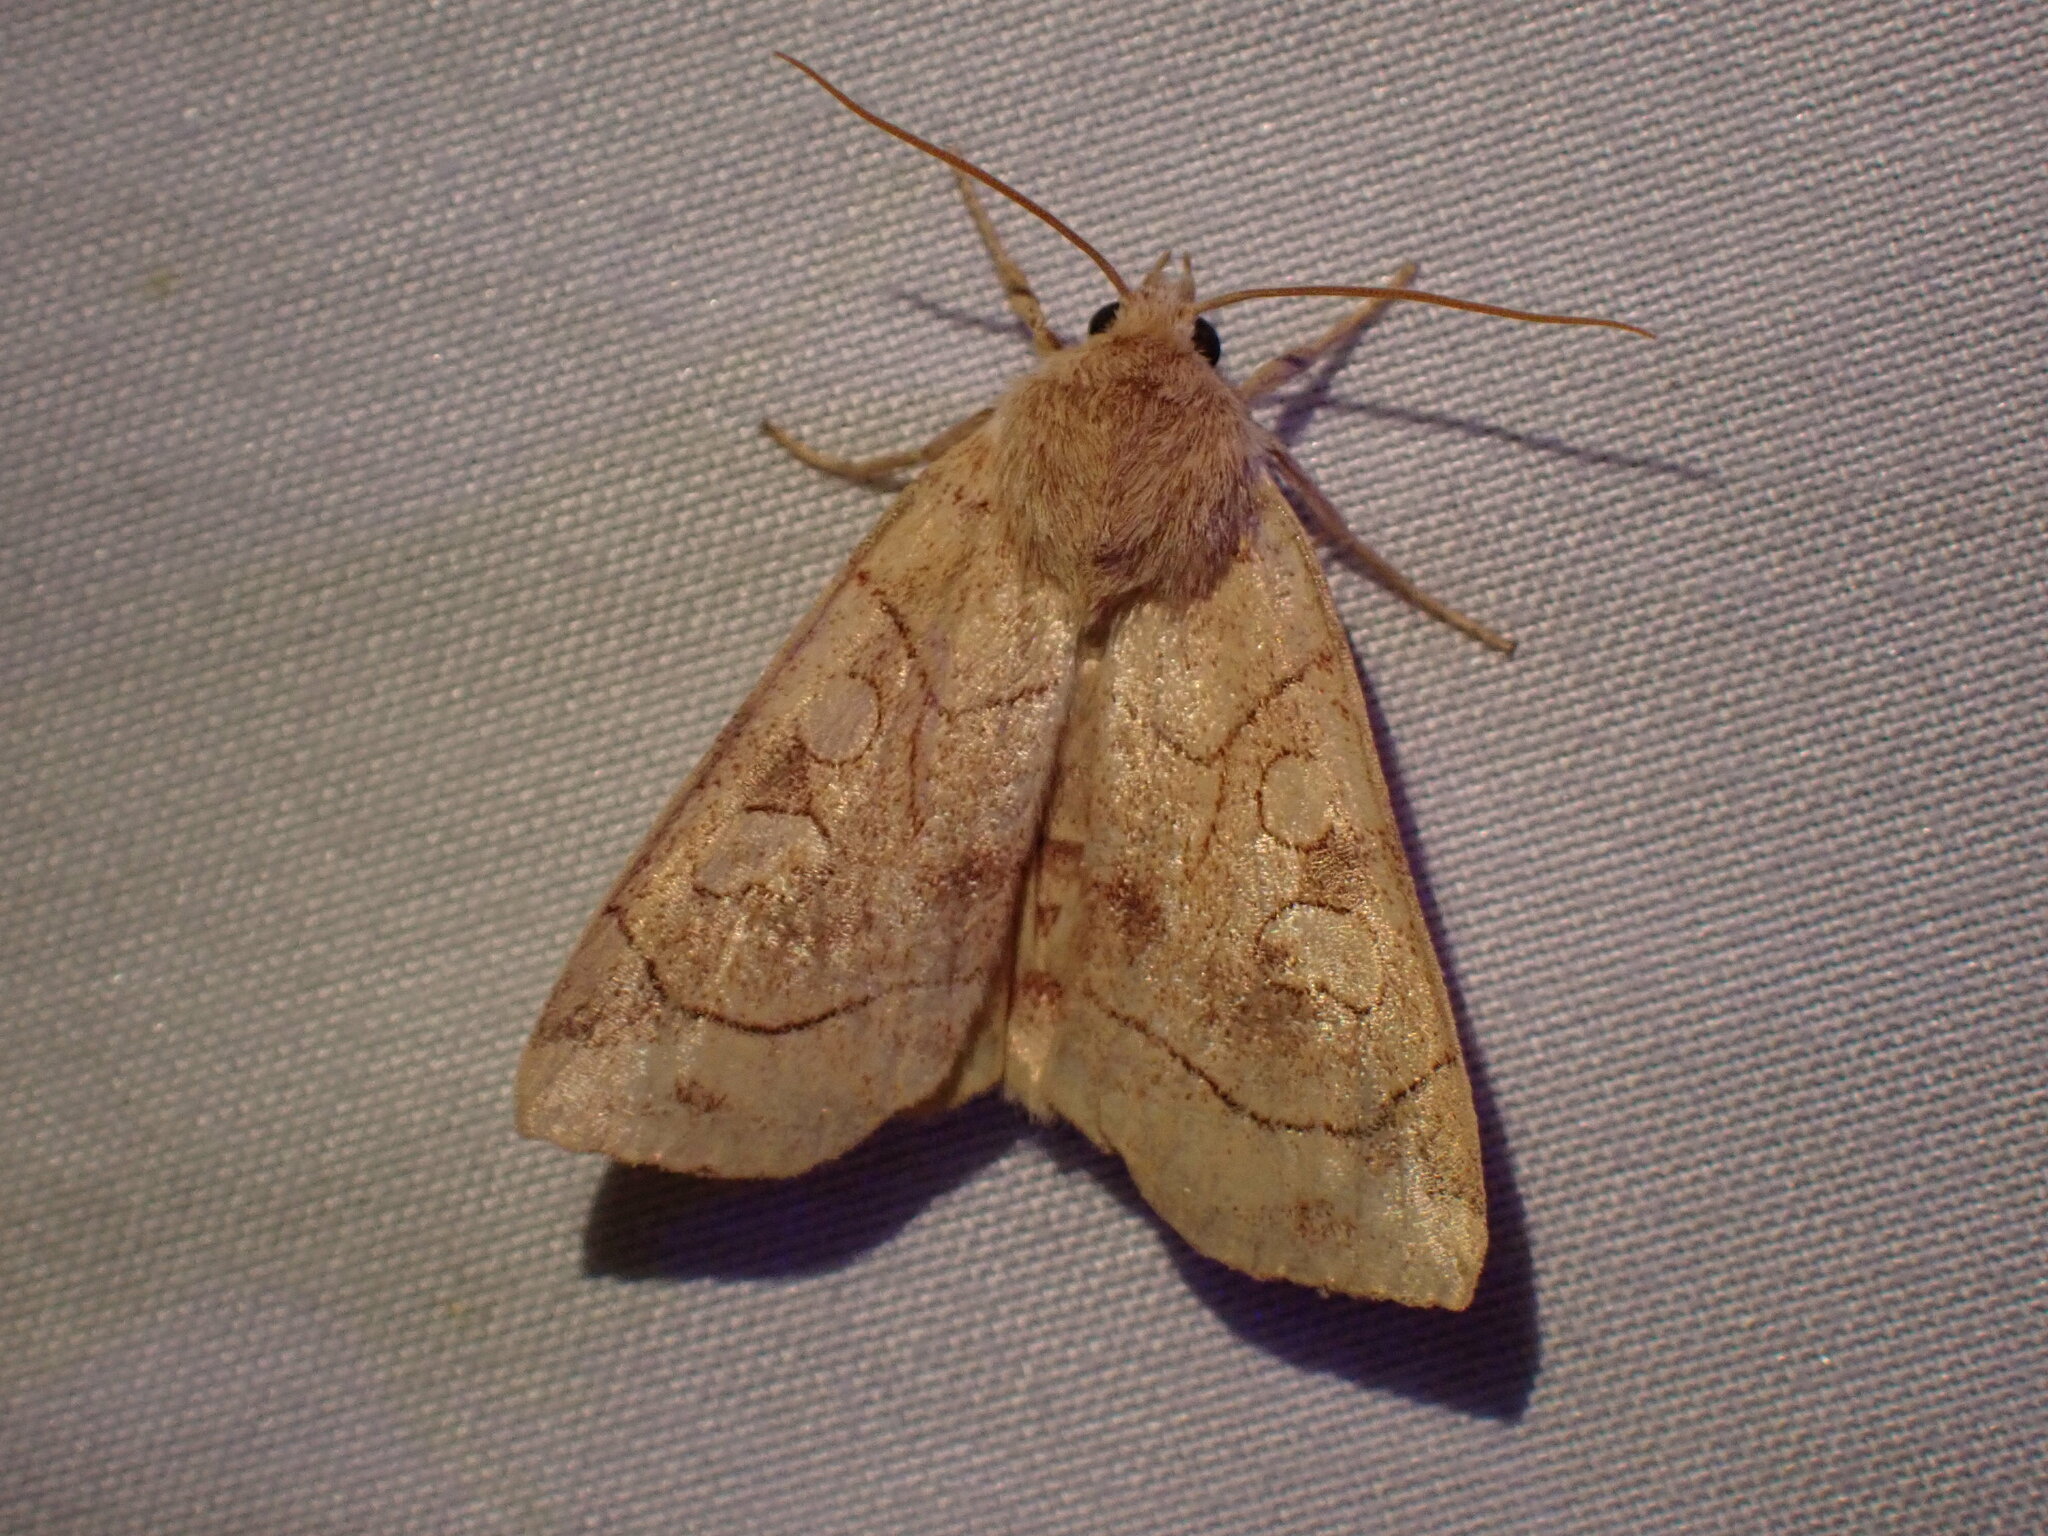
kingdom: Animalia
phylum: Arthropoda
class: Insecta
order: Lepidoptera
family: Noctuidae
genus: Enargia
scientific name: Enargia decolor
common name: Aspen twoleaf tier moth
